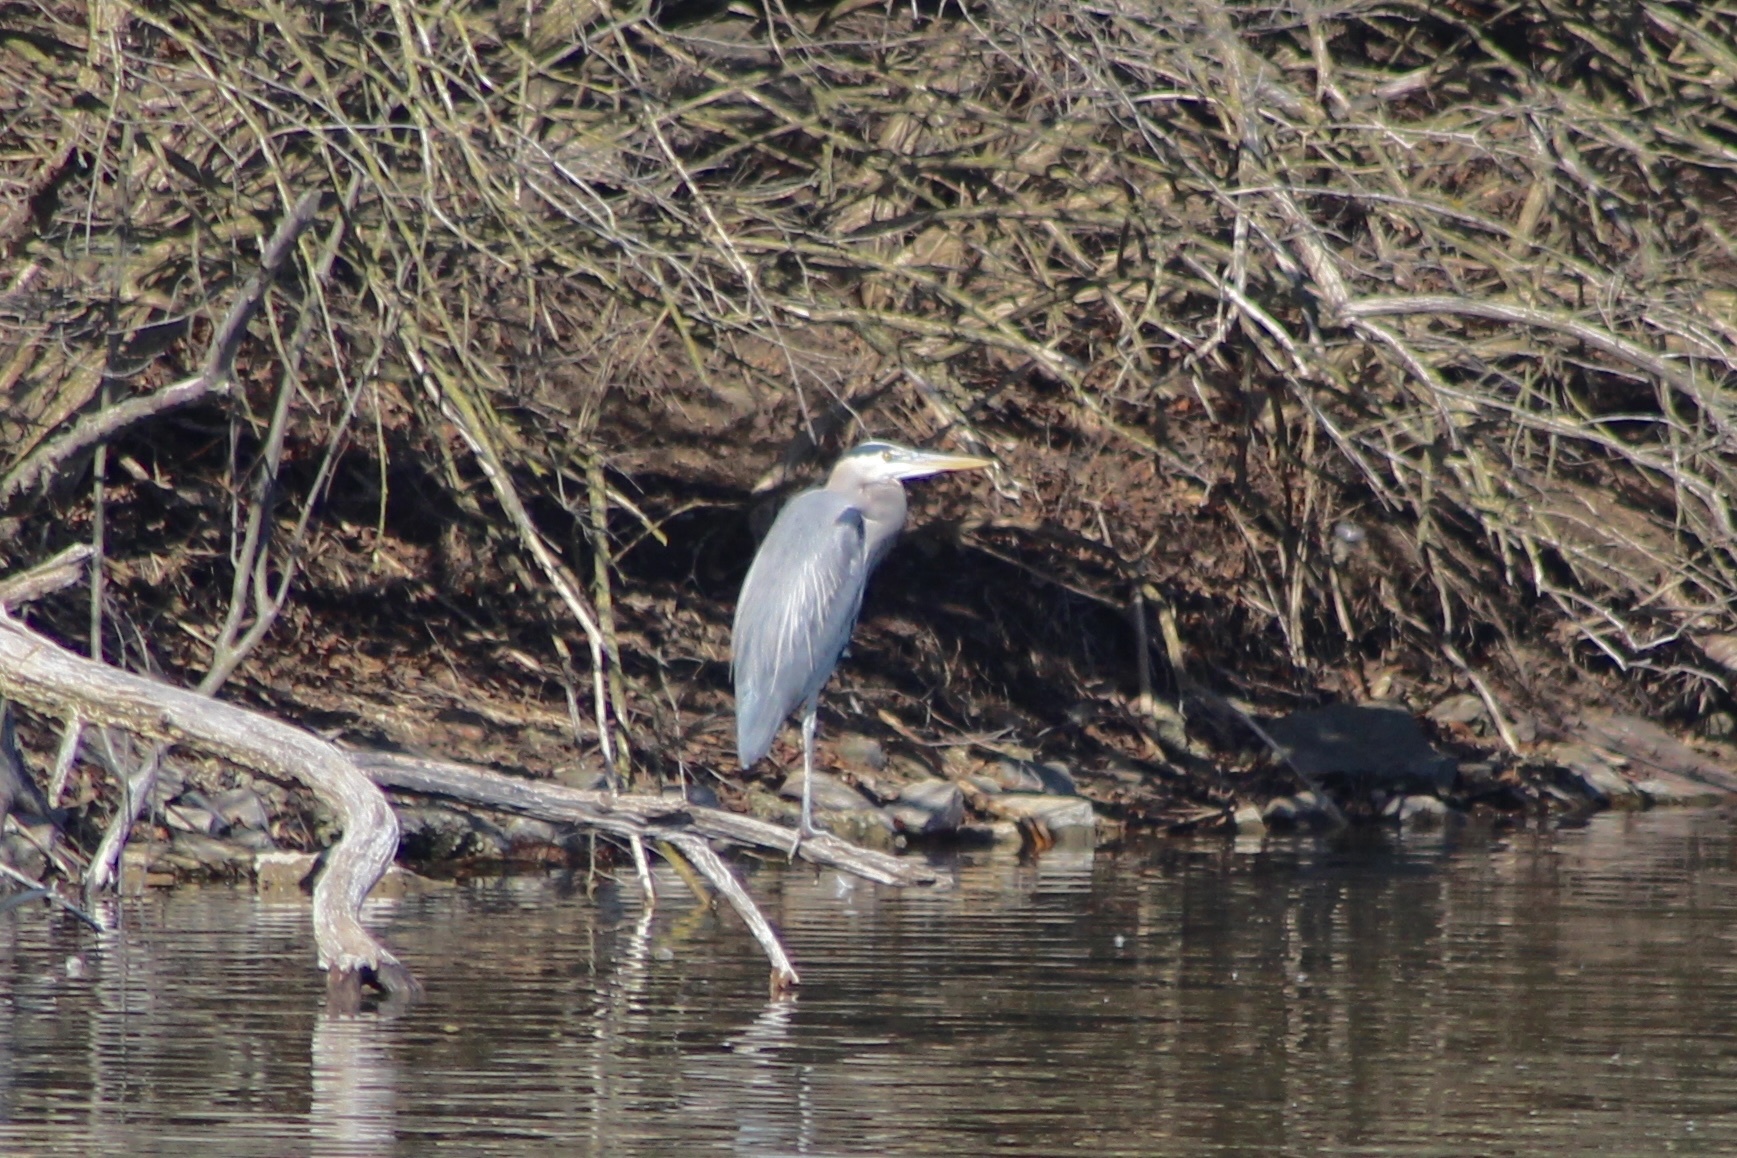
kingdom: Animalia
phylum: Chordata
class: Aves
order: Pelecaniformes
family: Ardeidae
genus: Ardea
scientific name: Ardea herodias
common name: Great blue heron
